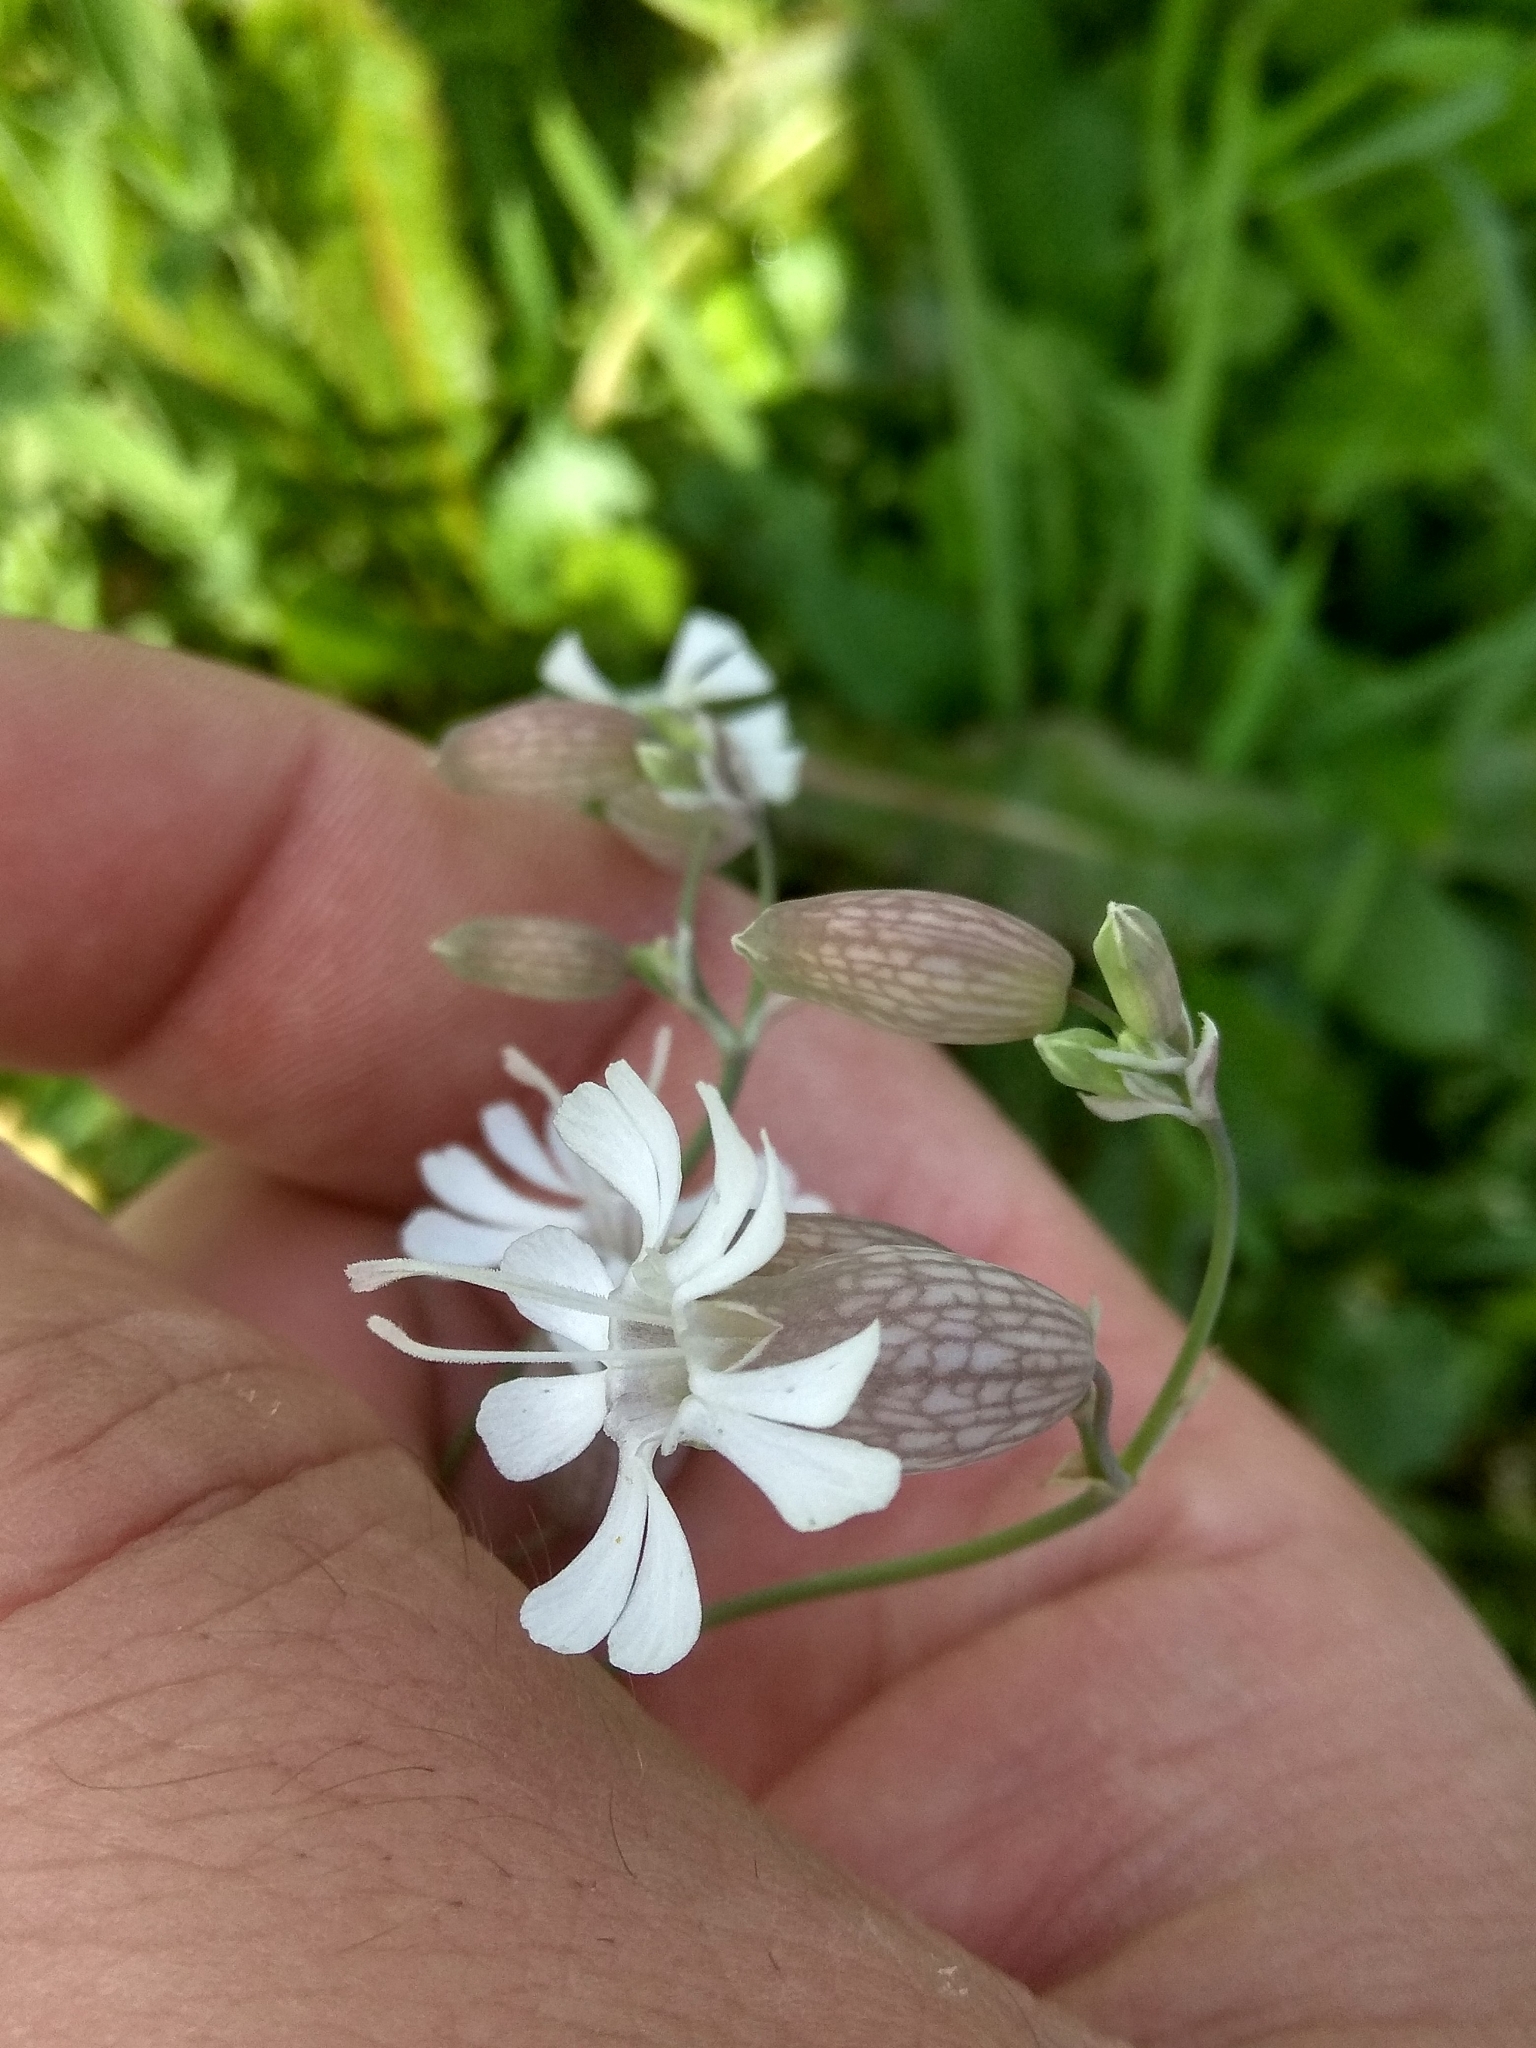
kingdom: Plantae
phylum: Tracheophyta
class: Magnoliopsida
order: Caryophyllales
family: Caryophyllaceae
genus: Silene
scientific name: Silene vulgaris
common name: Bladder campion
